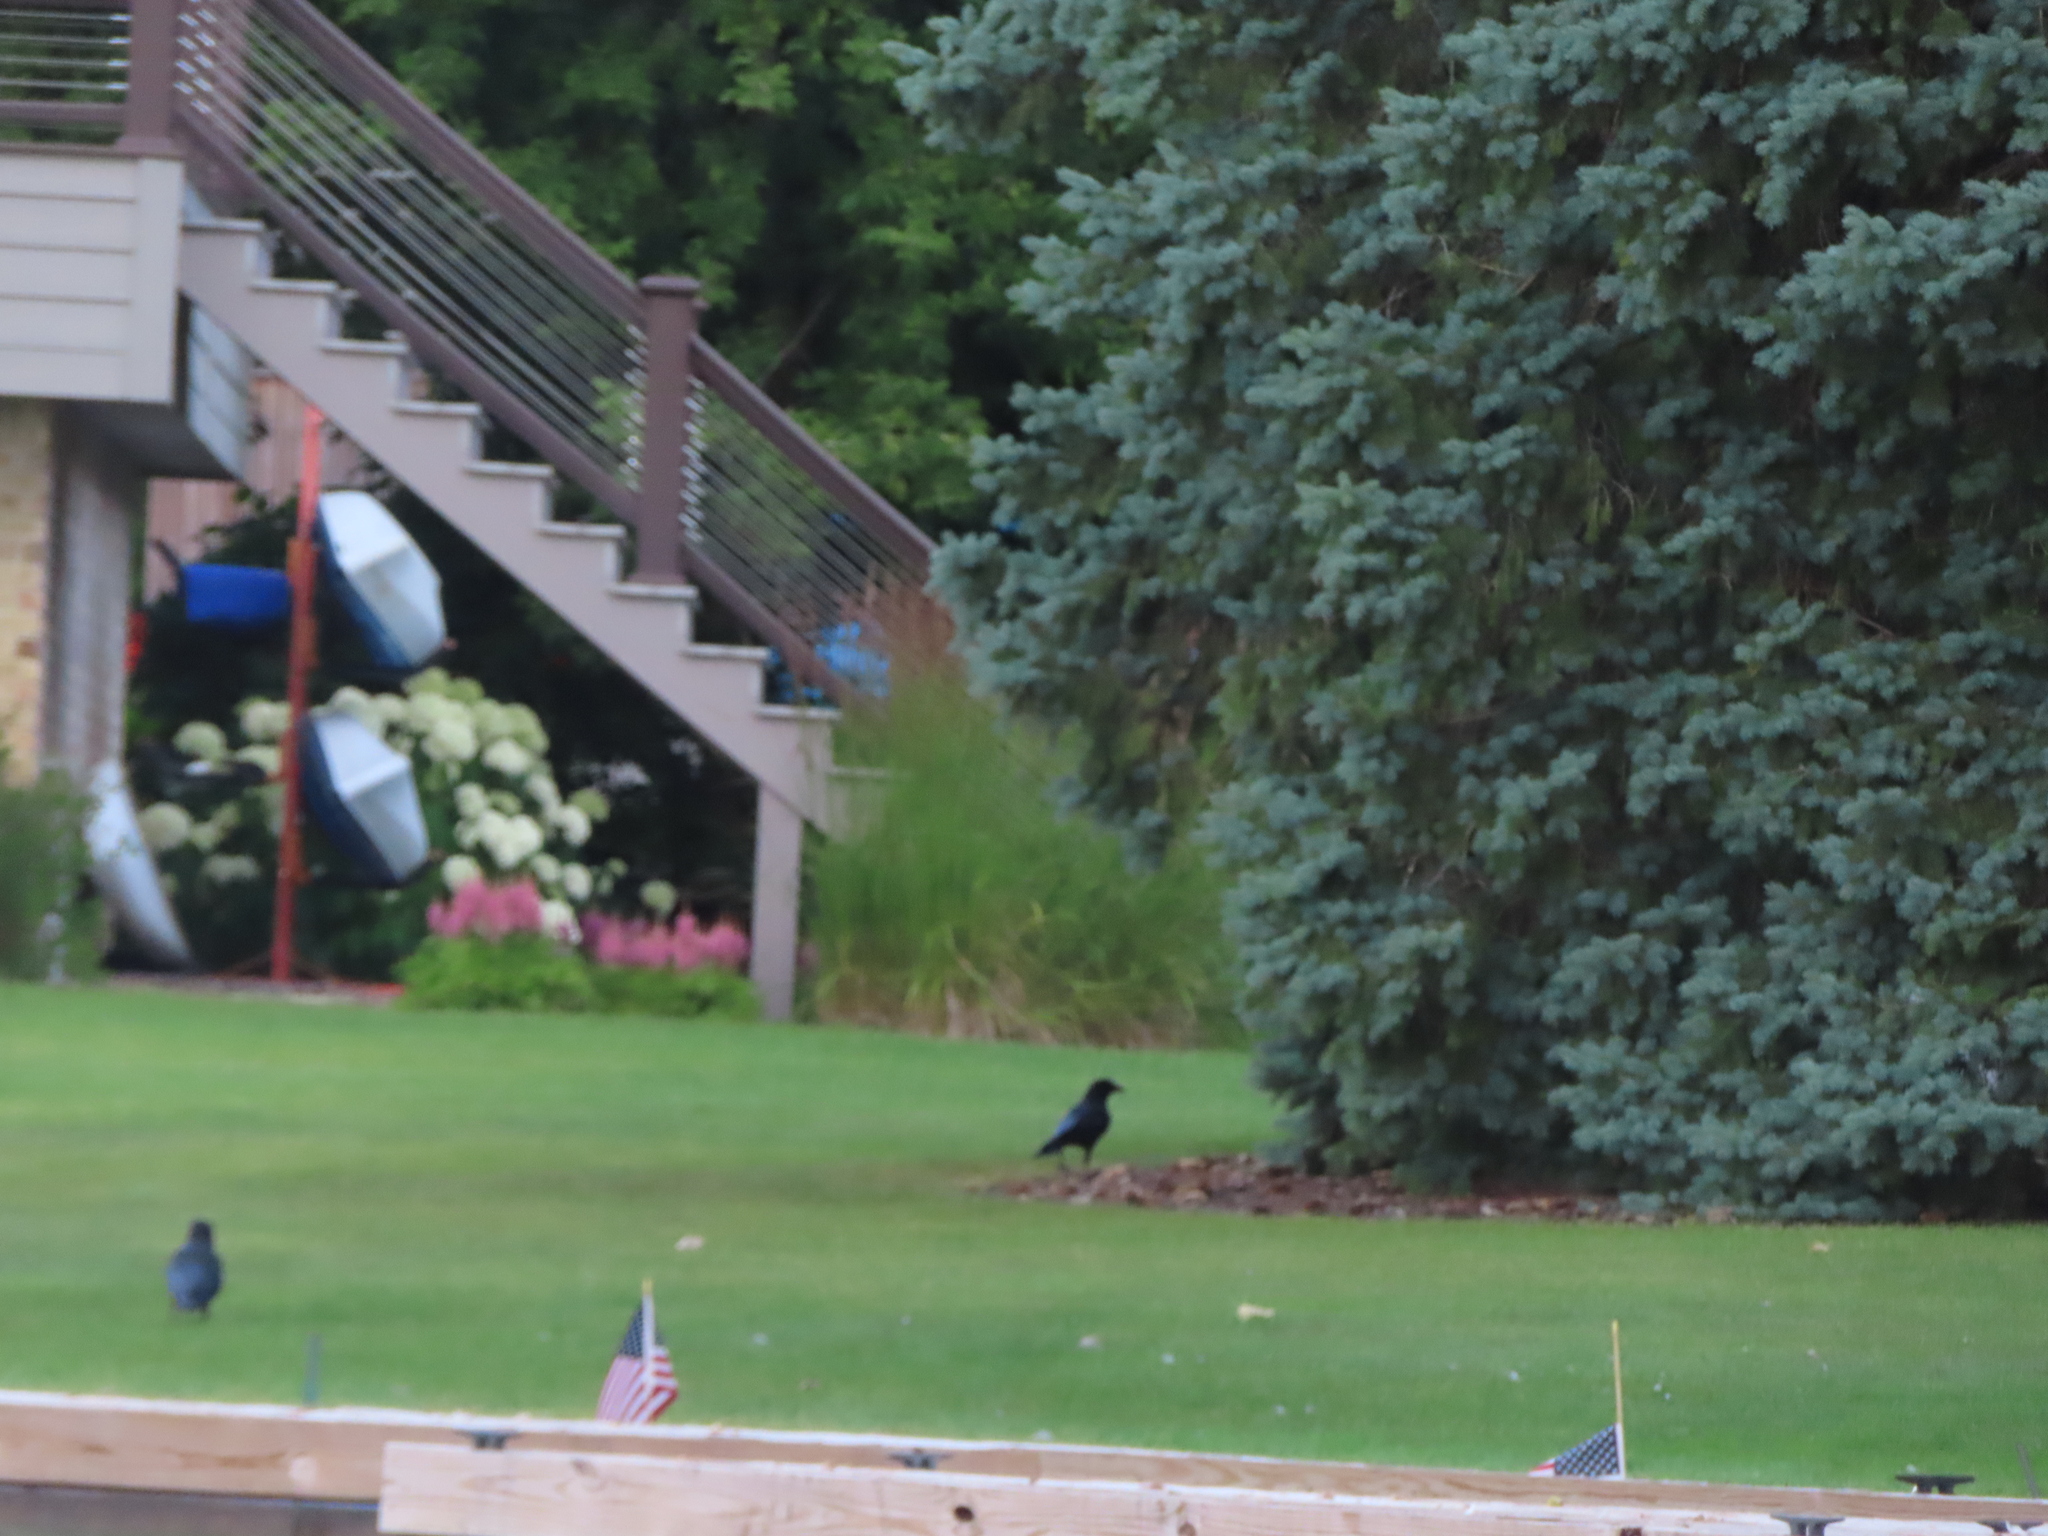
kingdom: Animalia
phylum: Chordata
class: Aves
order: Passeriformes
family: Corvidae
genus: Corvus
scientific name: Corvus brachyrhynchos
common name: American crow
